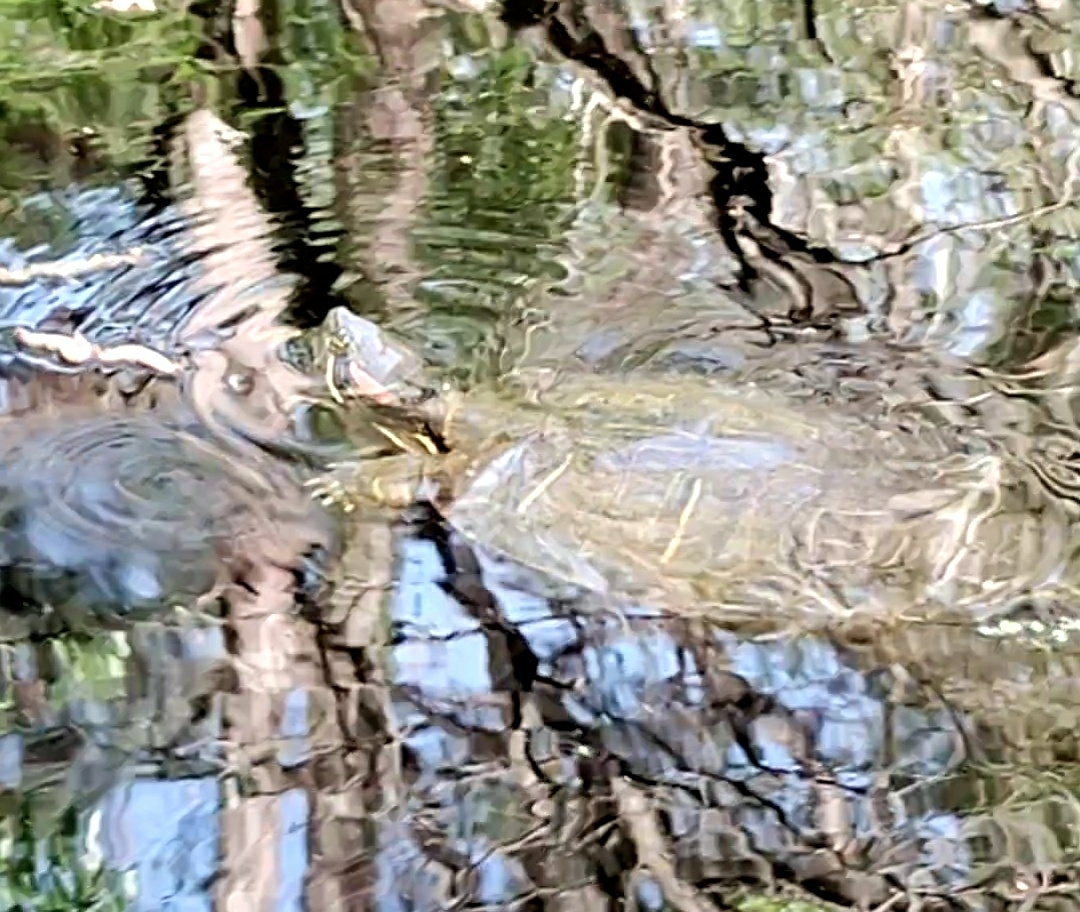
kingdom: Animalia
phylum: Chordata
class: Testudines
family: Emydidae
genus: Trachemys
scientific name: Trachemys scripta
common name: Slider
